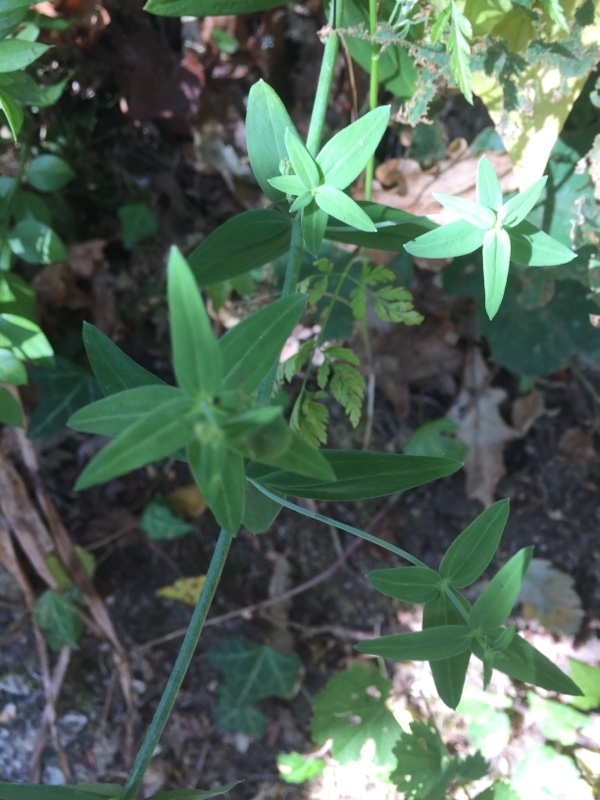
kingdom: Plantae
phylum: Tracheophyta
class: Magnoliopsida
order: Lamiales
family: Plantaginaceae
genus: Linaria
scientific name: Linaria triornithophora
